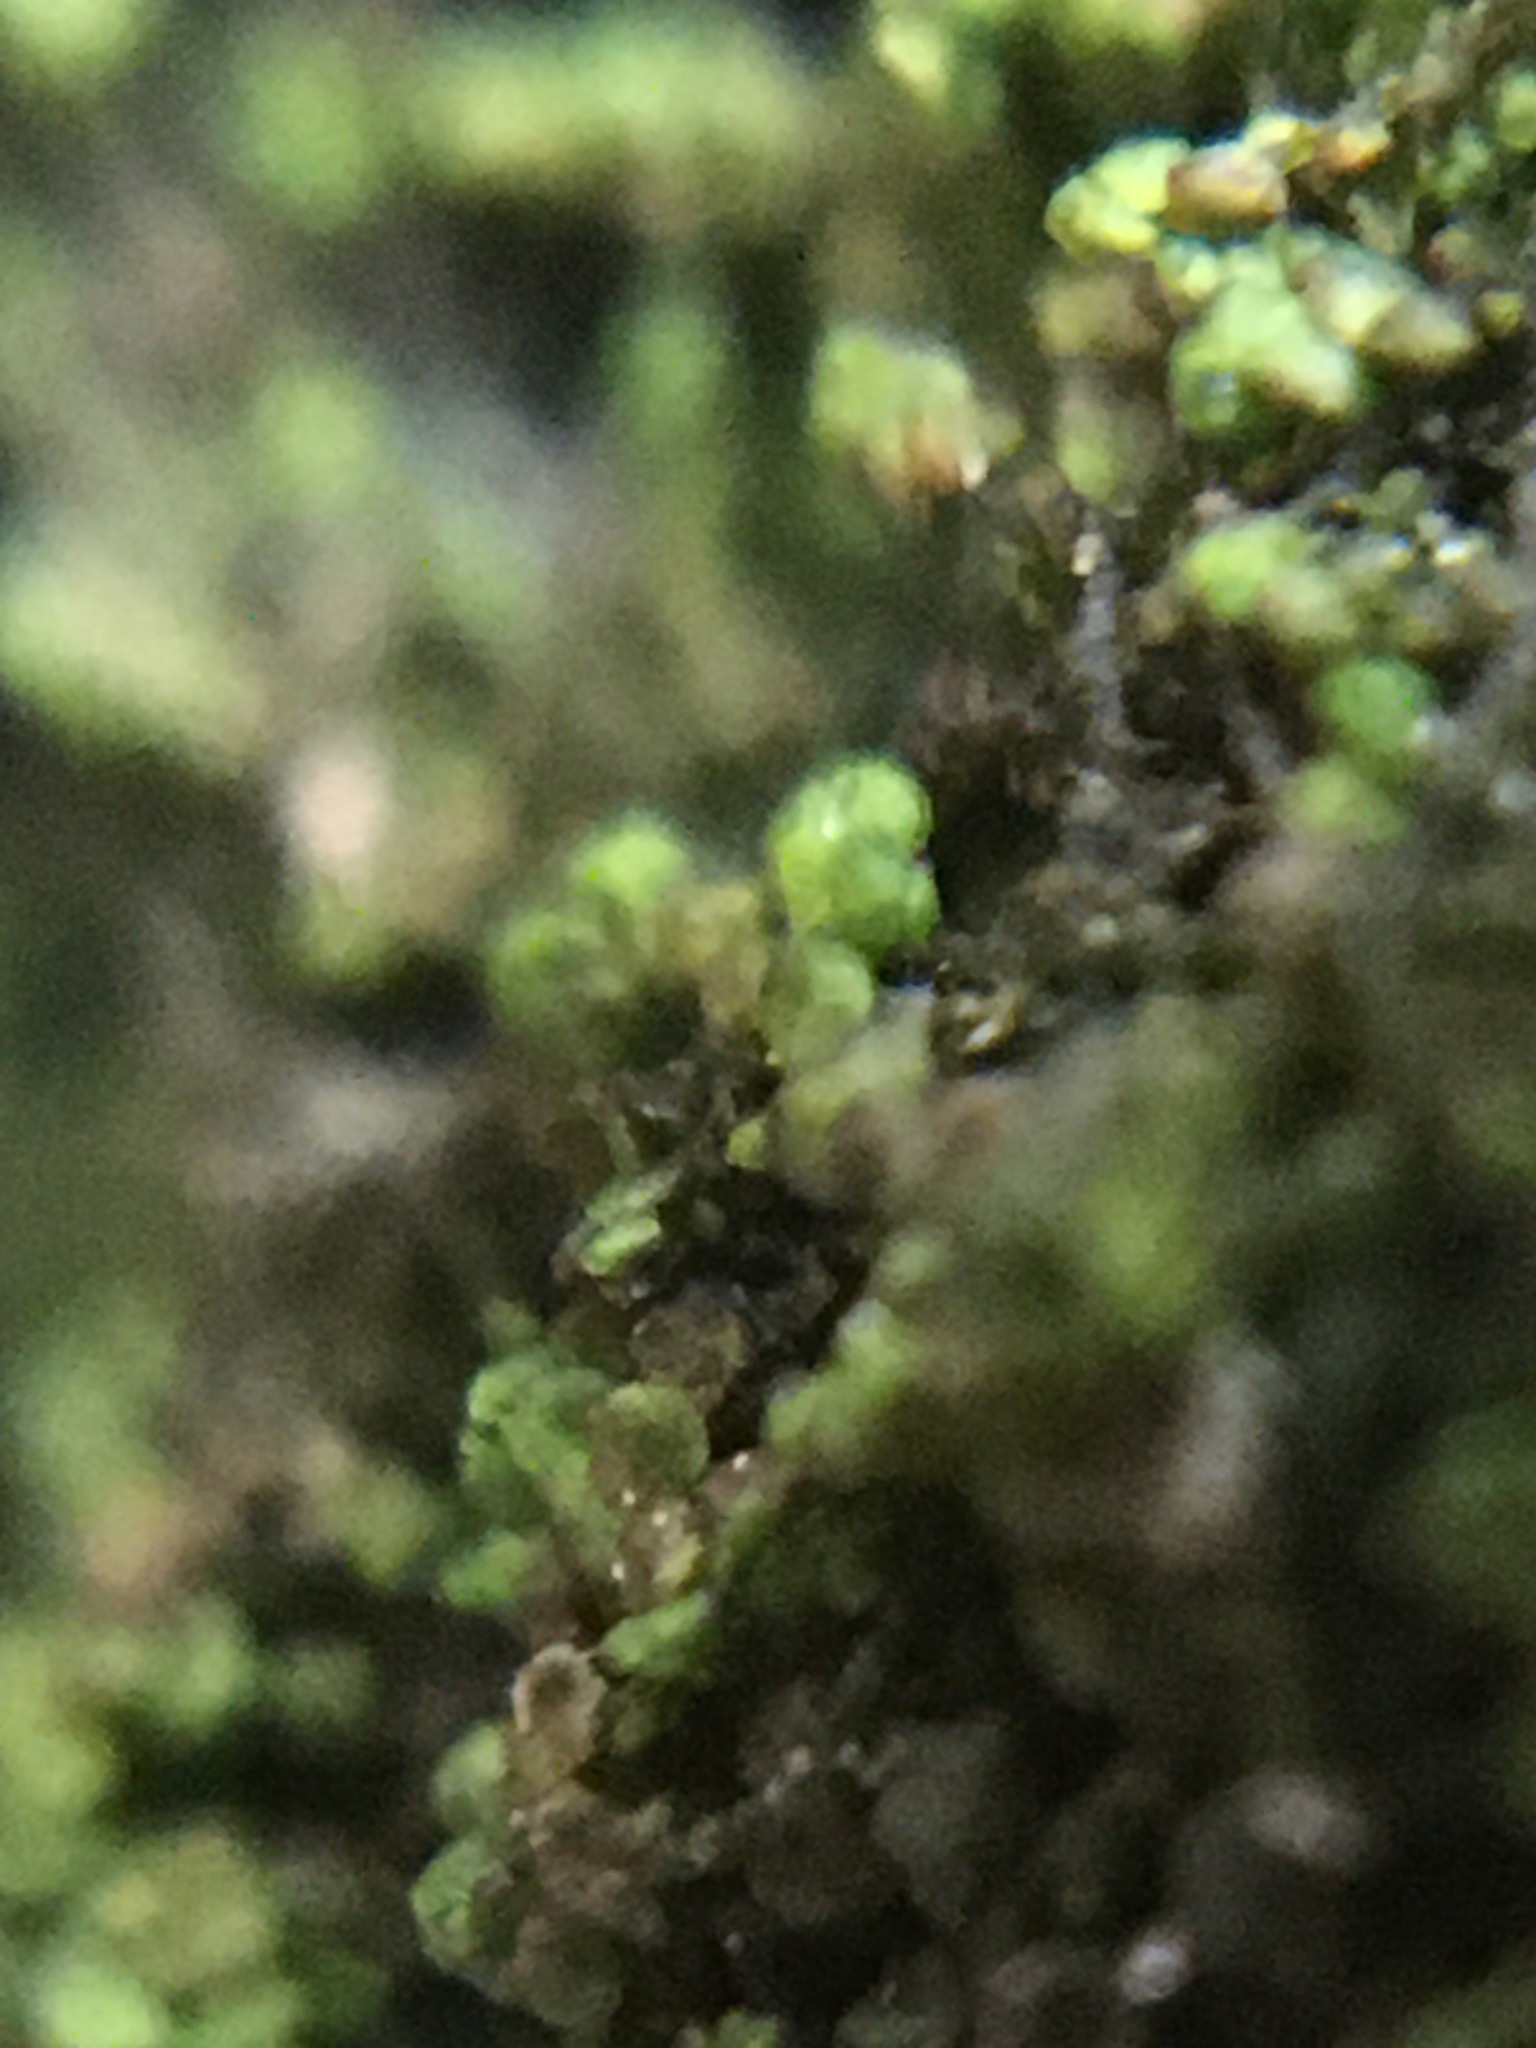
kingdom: Plantae
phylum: Marchantiophyta
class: Jungermanniopsida
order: Porellales
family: Frullaniaceae
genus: Frullania
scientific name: Frullania eboracensis
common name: New york scalewort
